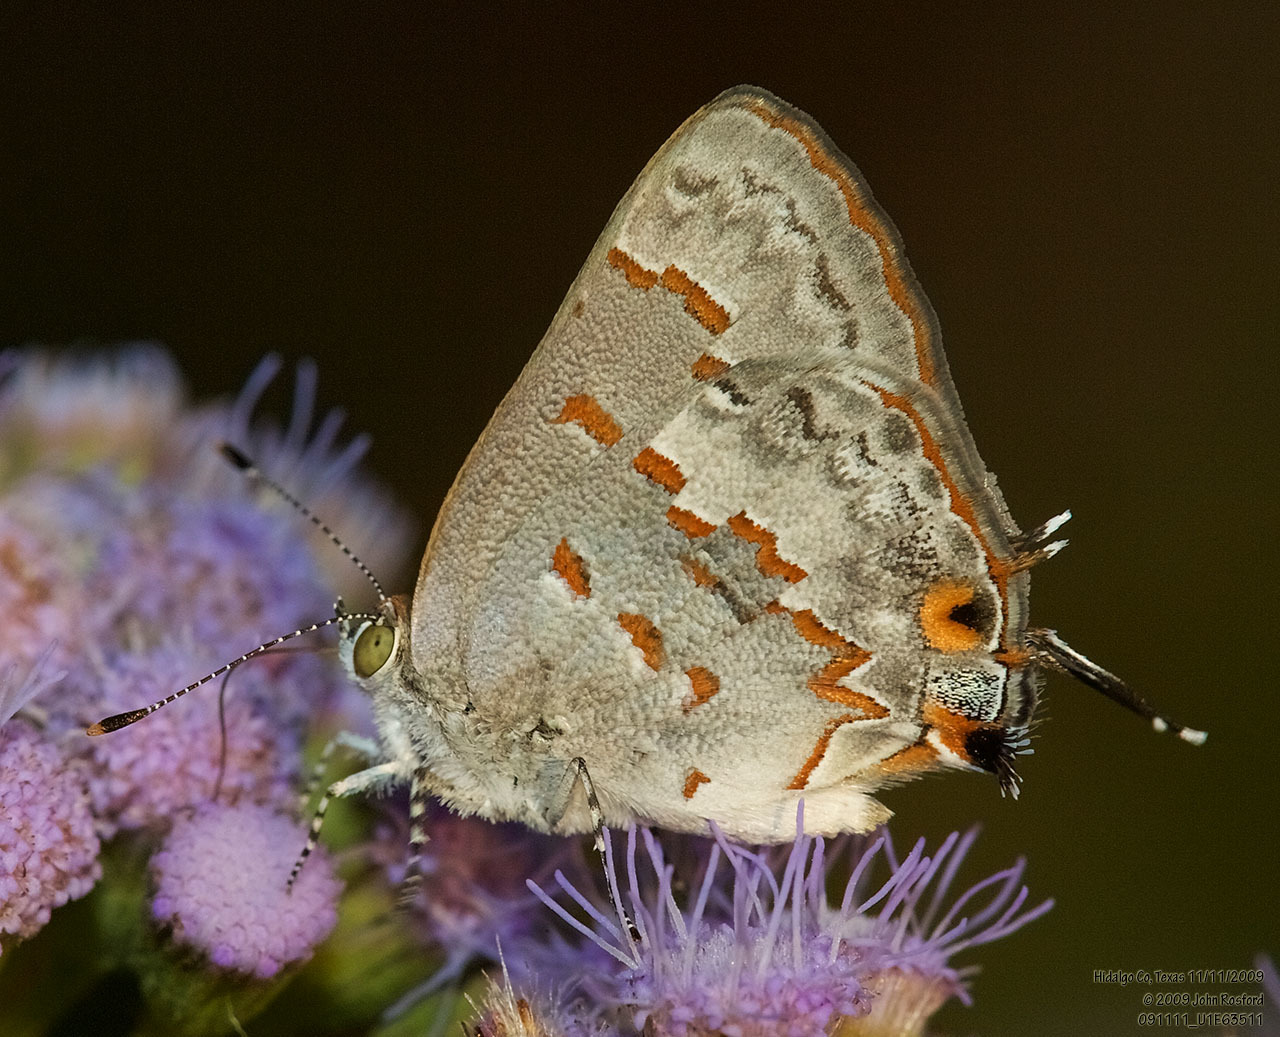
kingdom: Animalia
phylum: Arthropoda
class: Insecta
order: Lepidoptera
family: Lycaenidae
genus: Ministrymon
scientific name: Ministrymon clytie
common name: Clytie ministreak
